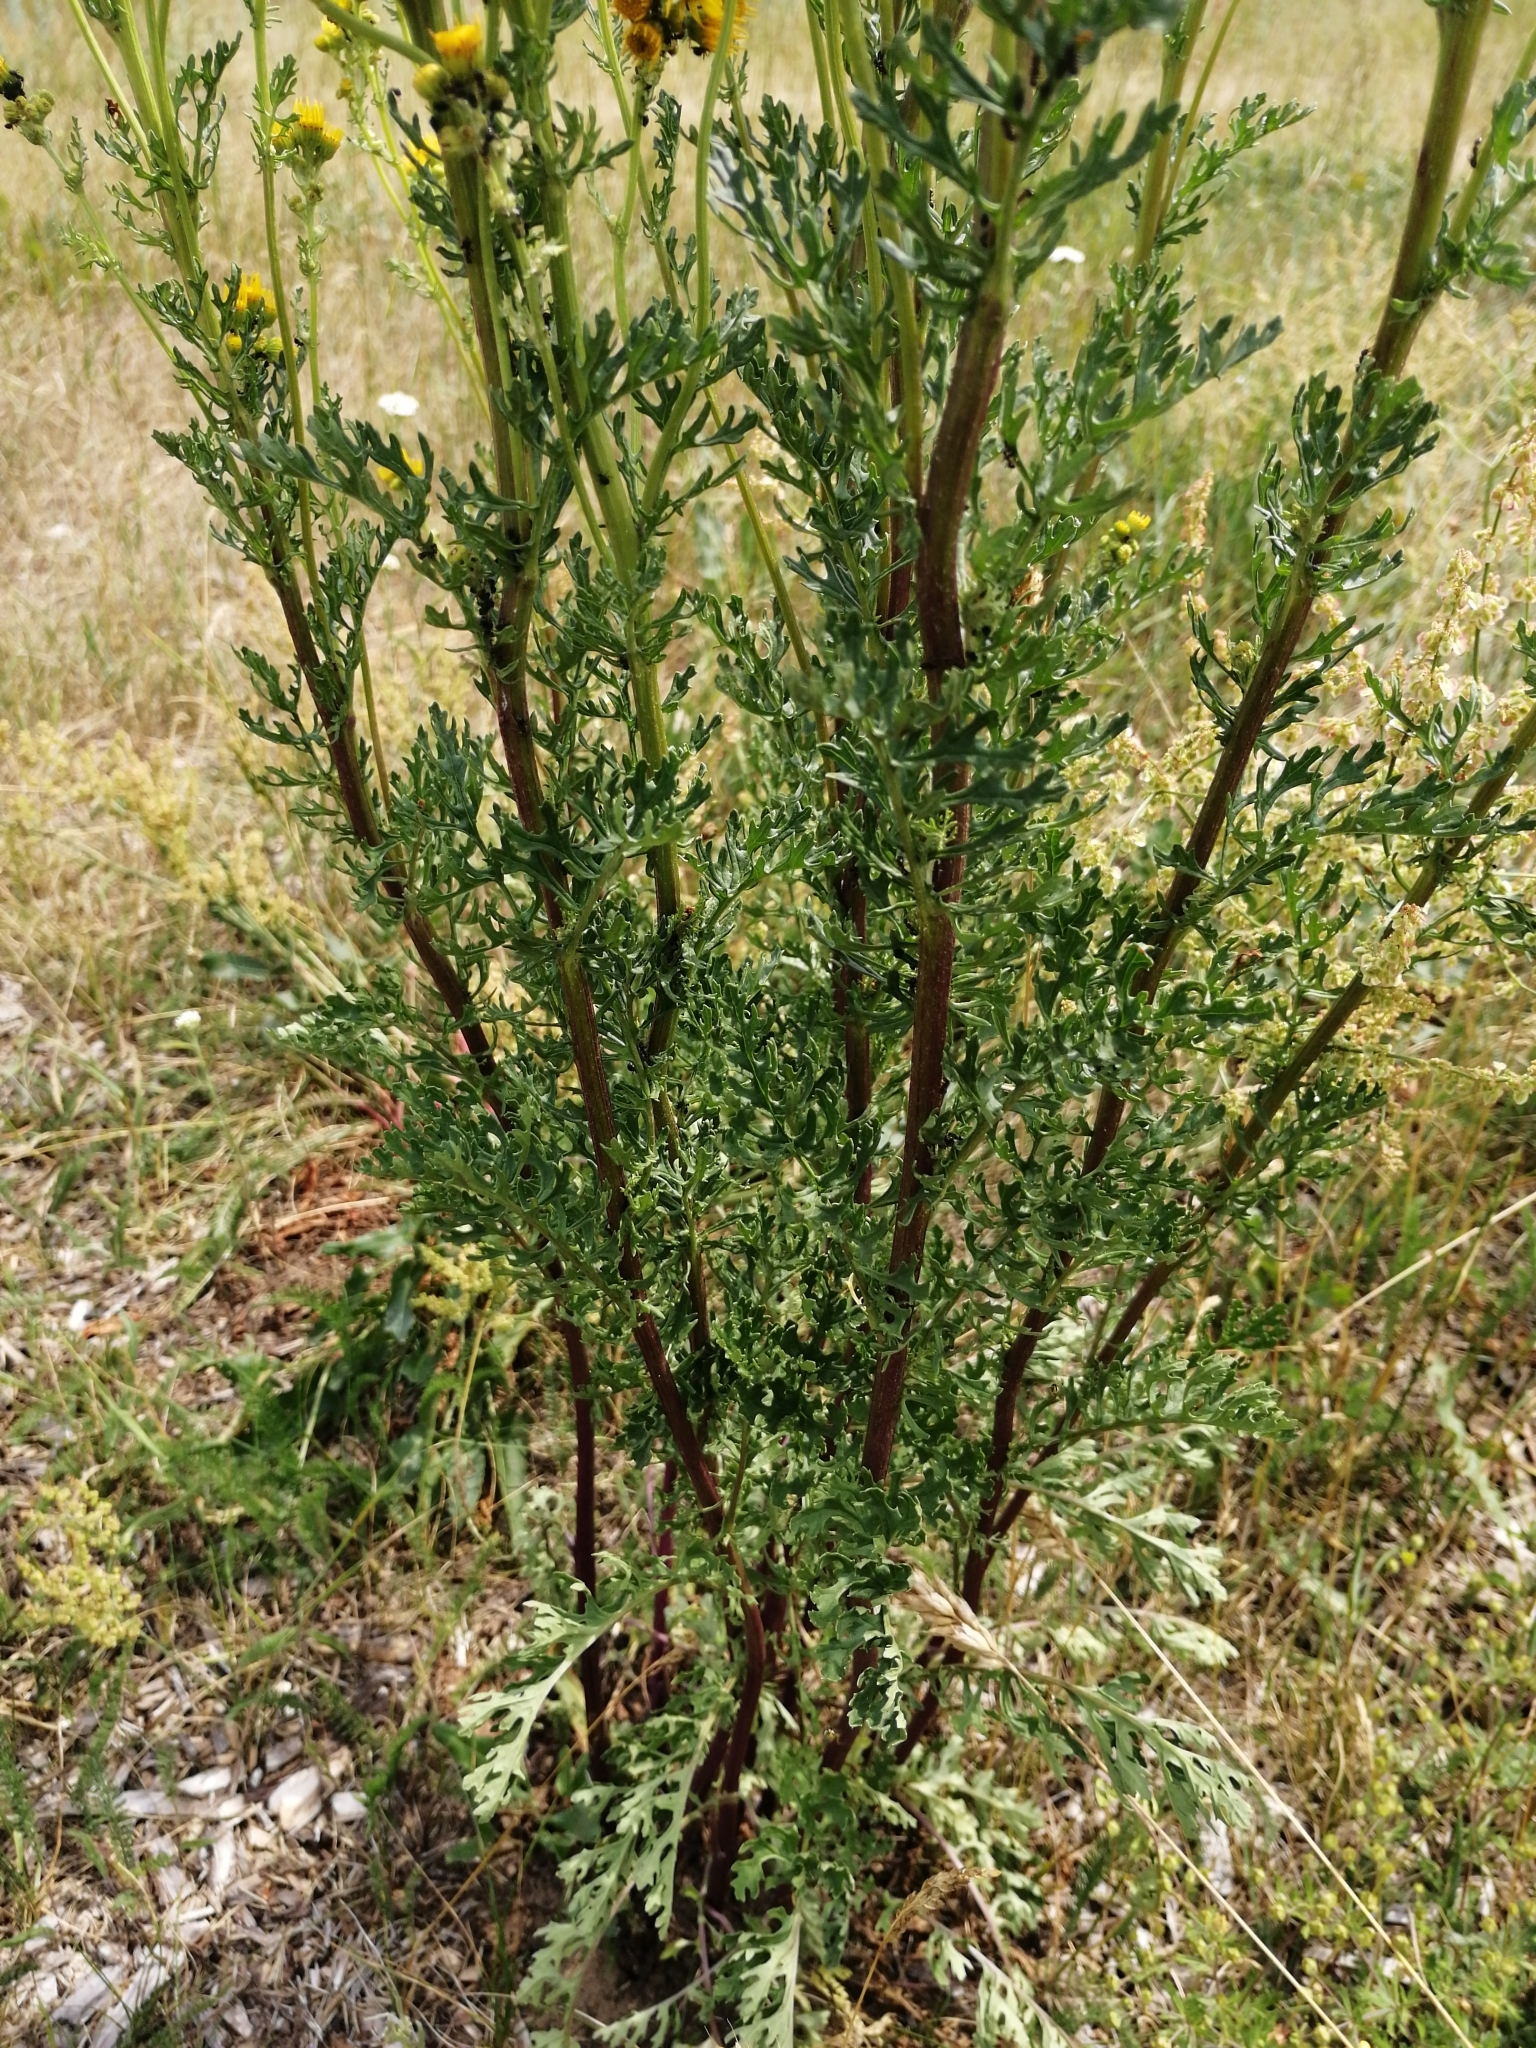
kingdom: Plantae
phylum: Tracheophyta
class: Magnoliopsida
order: Asterales
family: Asteraceae
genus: Jacobaea
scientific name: Jacobaea vulgaris
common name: Stinking willie
